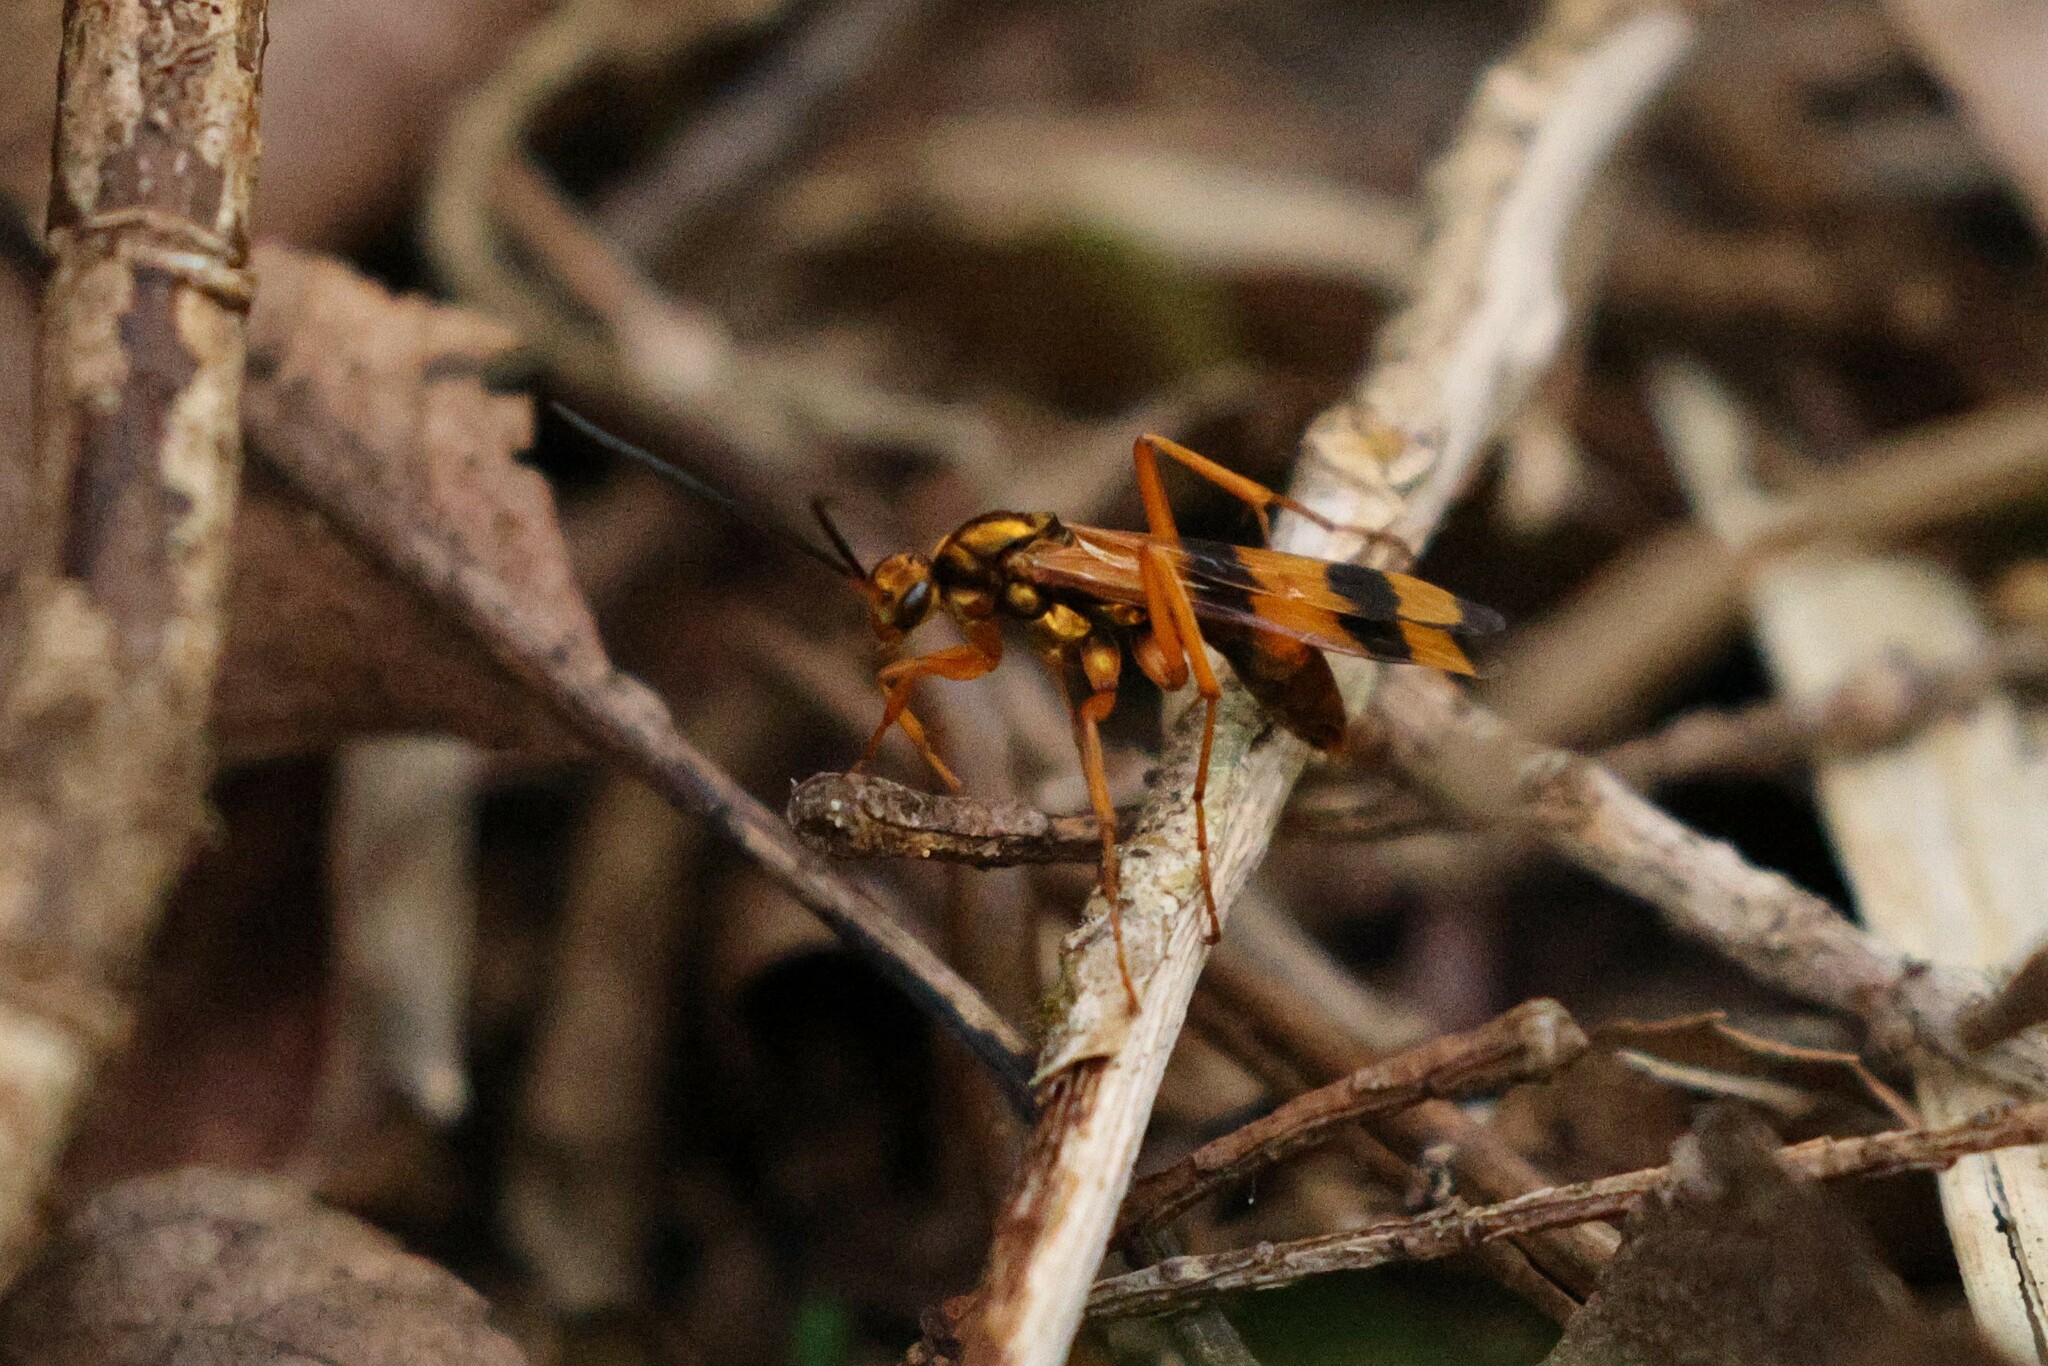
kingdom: Animalia
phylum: Arthropoda
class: Insecta
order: Hymenoptera
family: Pompilidae
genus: Sphictostethus
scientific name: Sphictostethus gravesii
